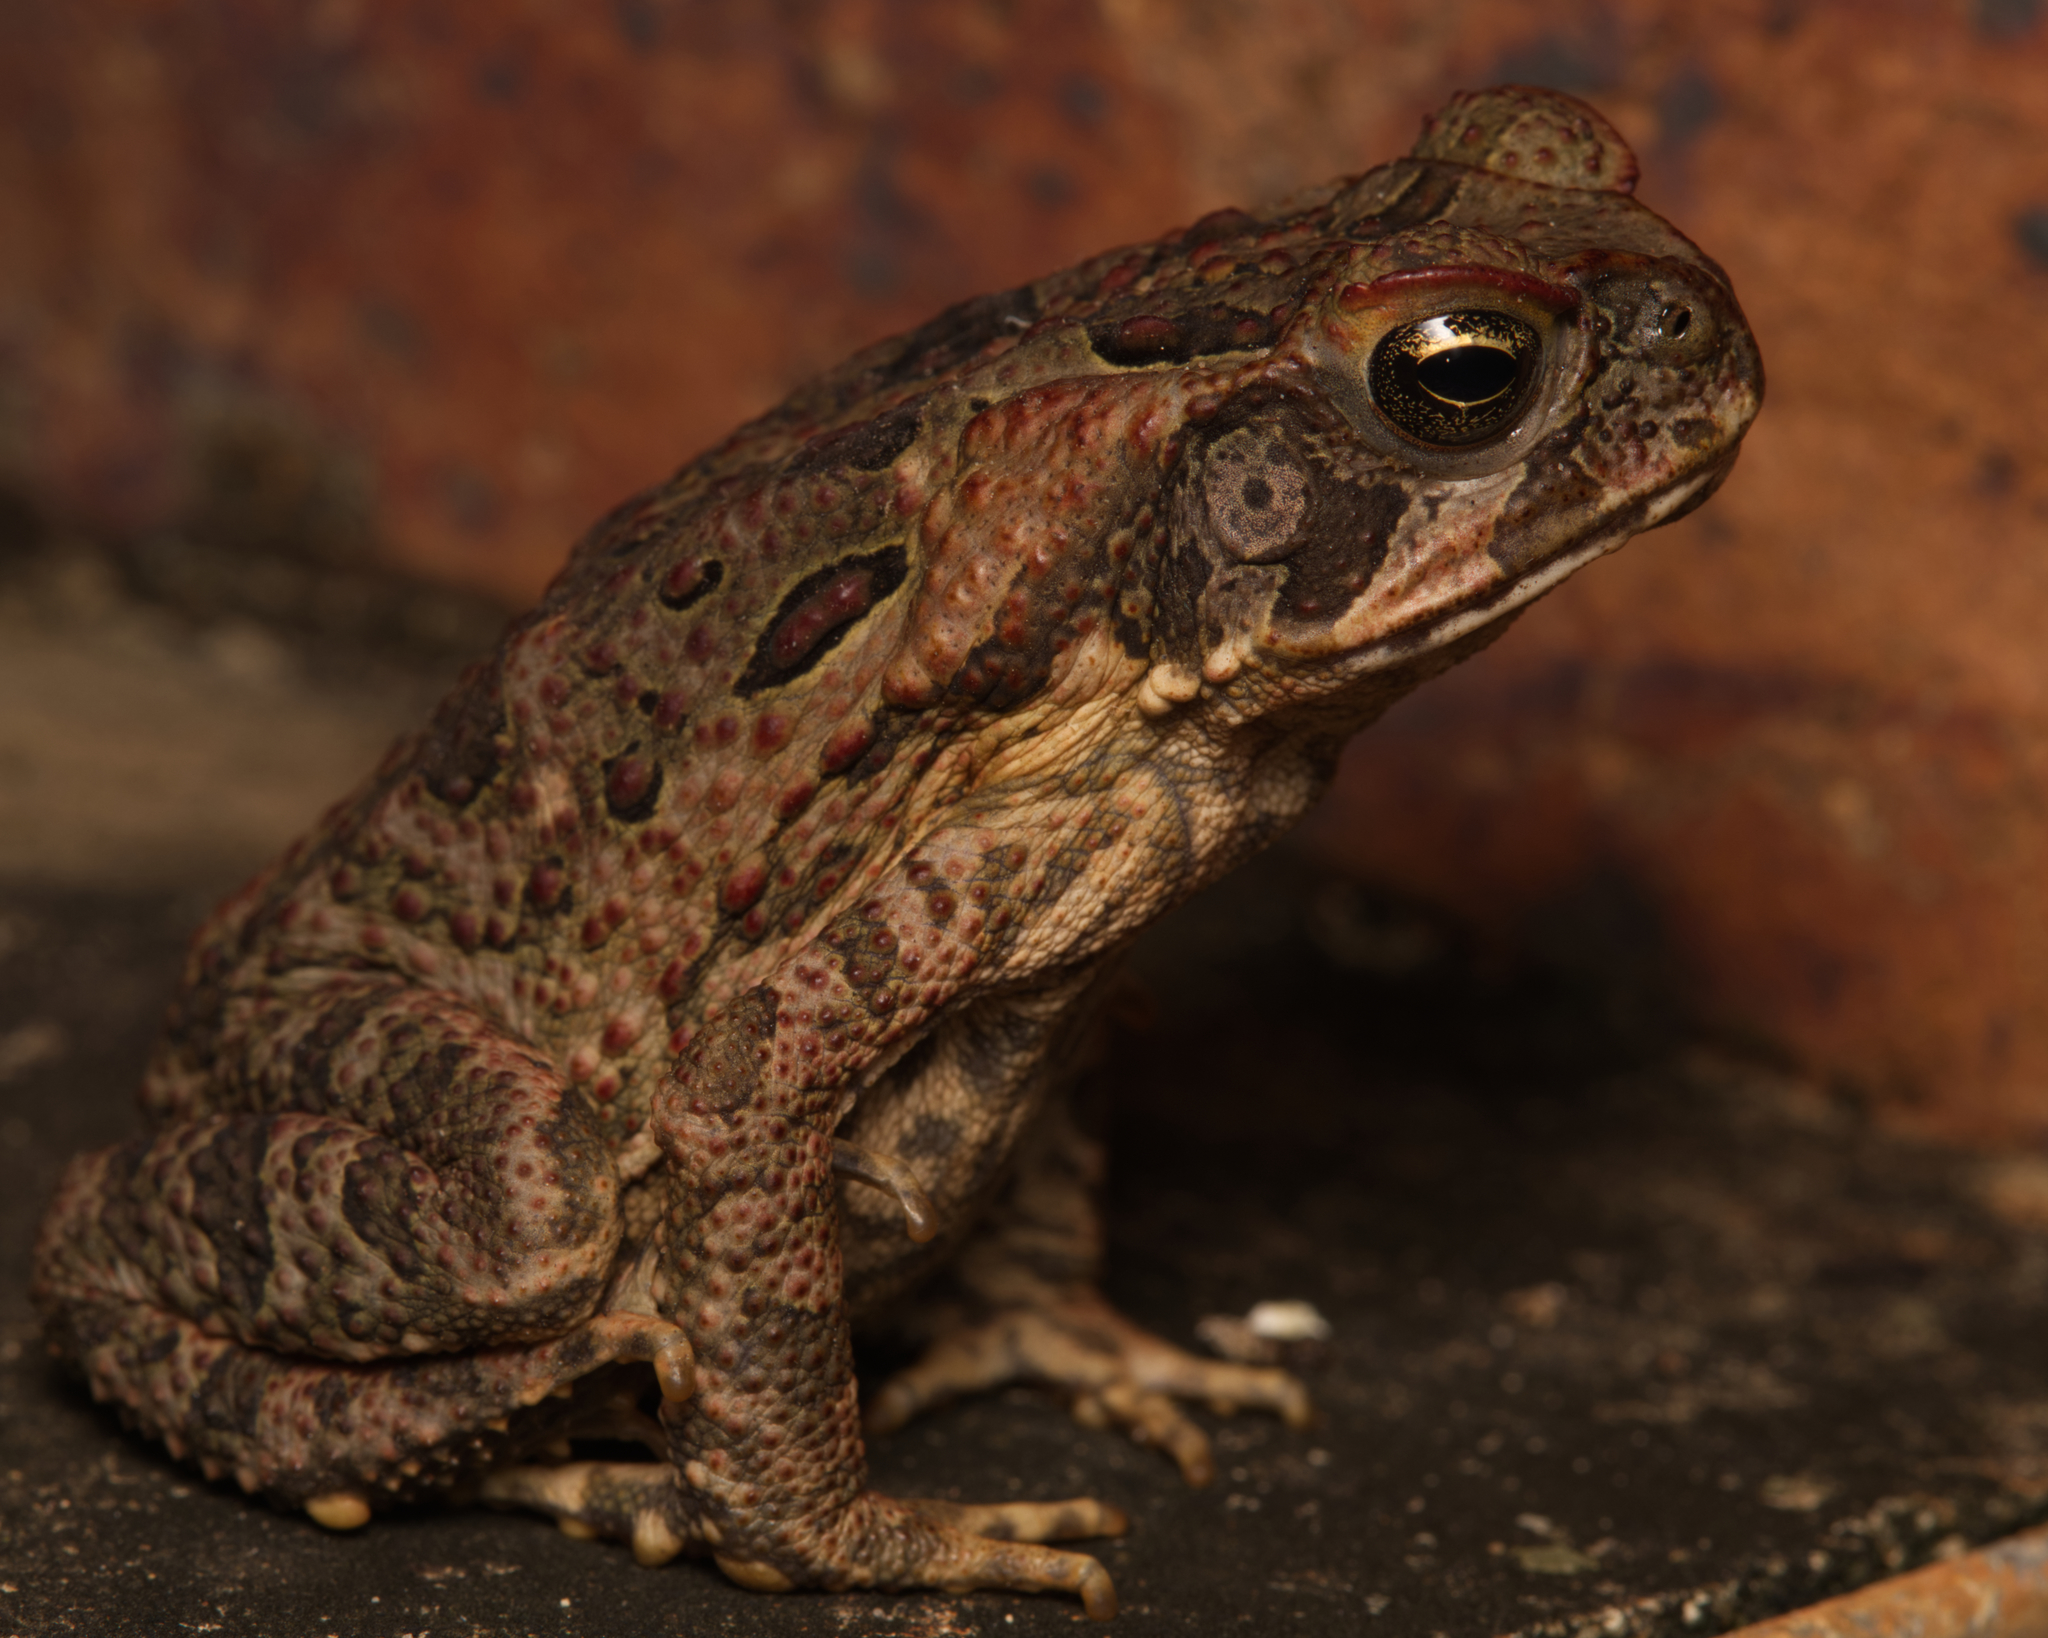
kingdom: Animalia
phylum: Chordata
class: Amphibia
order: Anura
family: Bufonidae
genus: Rhinella
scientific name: Rhinella marina
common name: Cane toad
